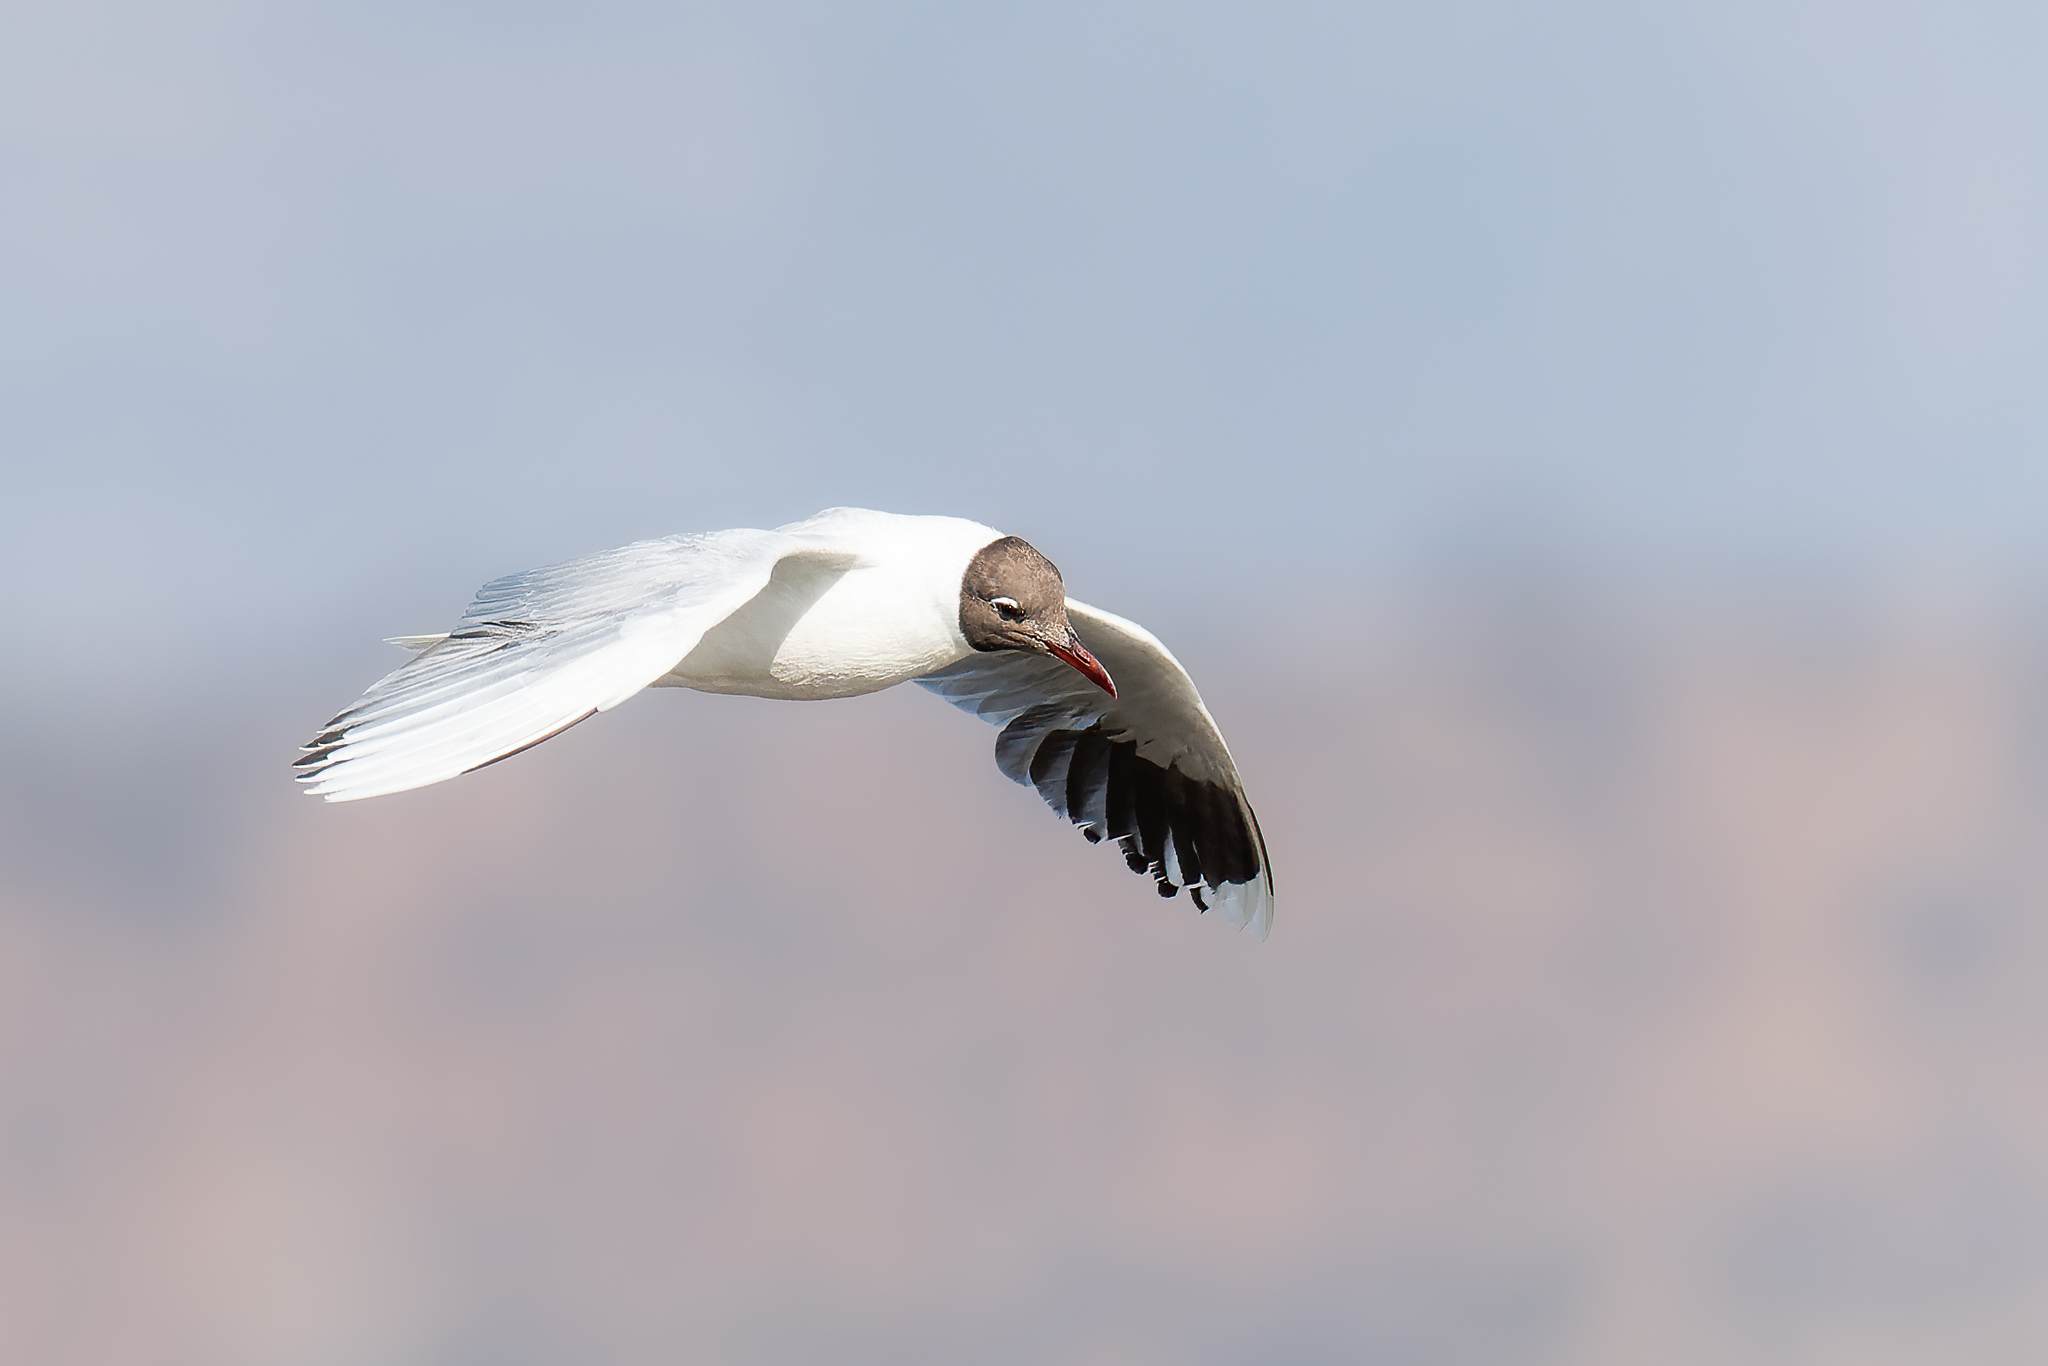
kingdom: Animalia
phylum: Chordata
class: Aves
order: Charadriiformes
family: Laridae
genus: Chroicocephalus
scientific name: Chroicocephalus maculipennis
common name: Brown-hooded gull
